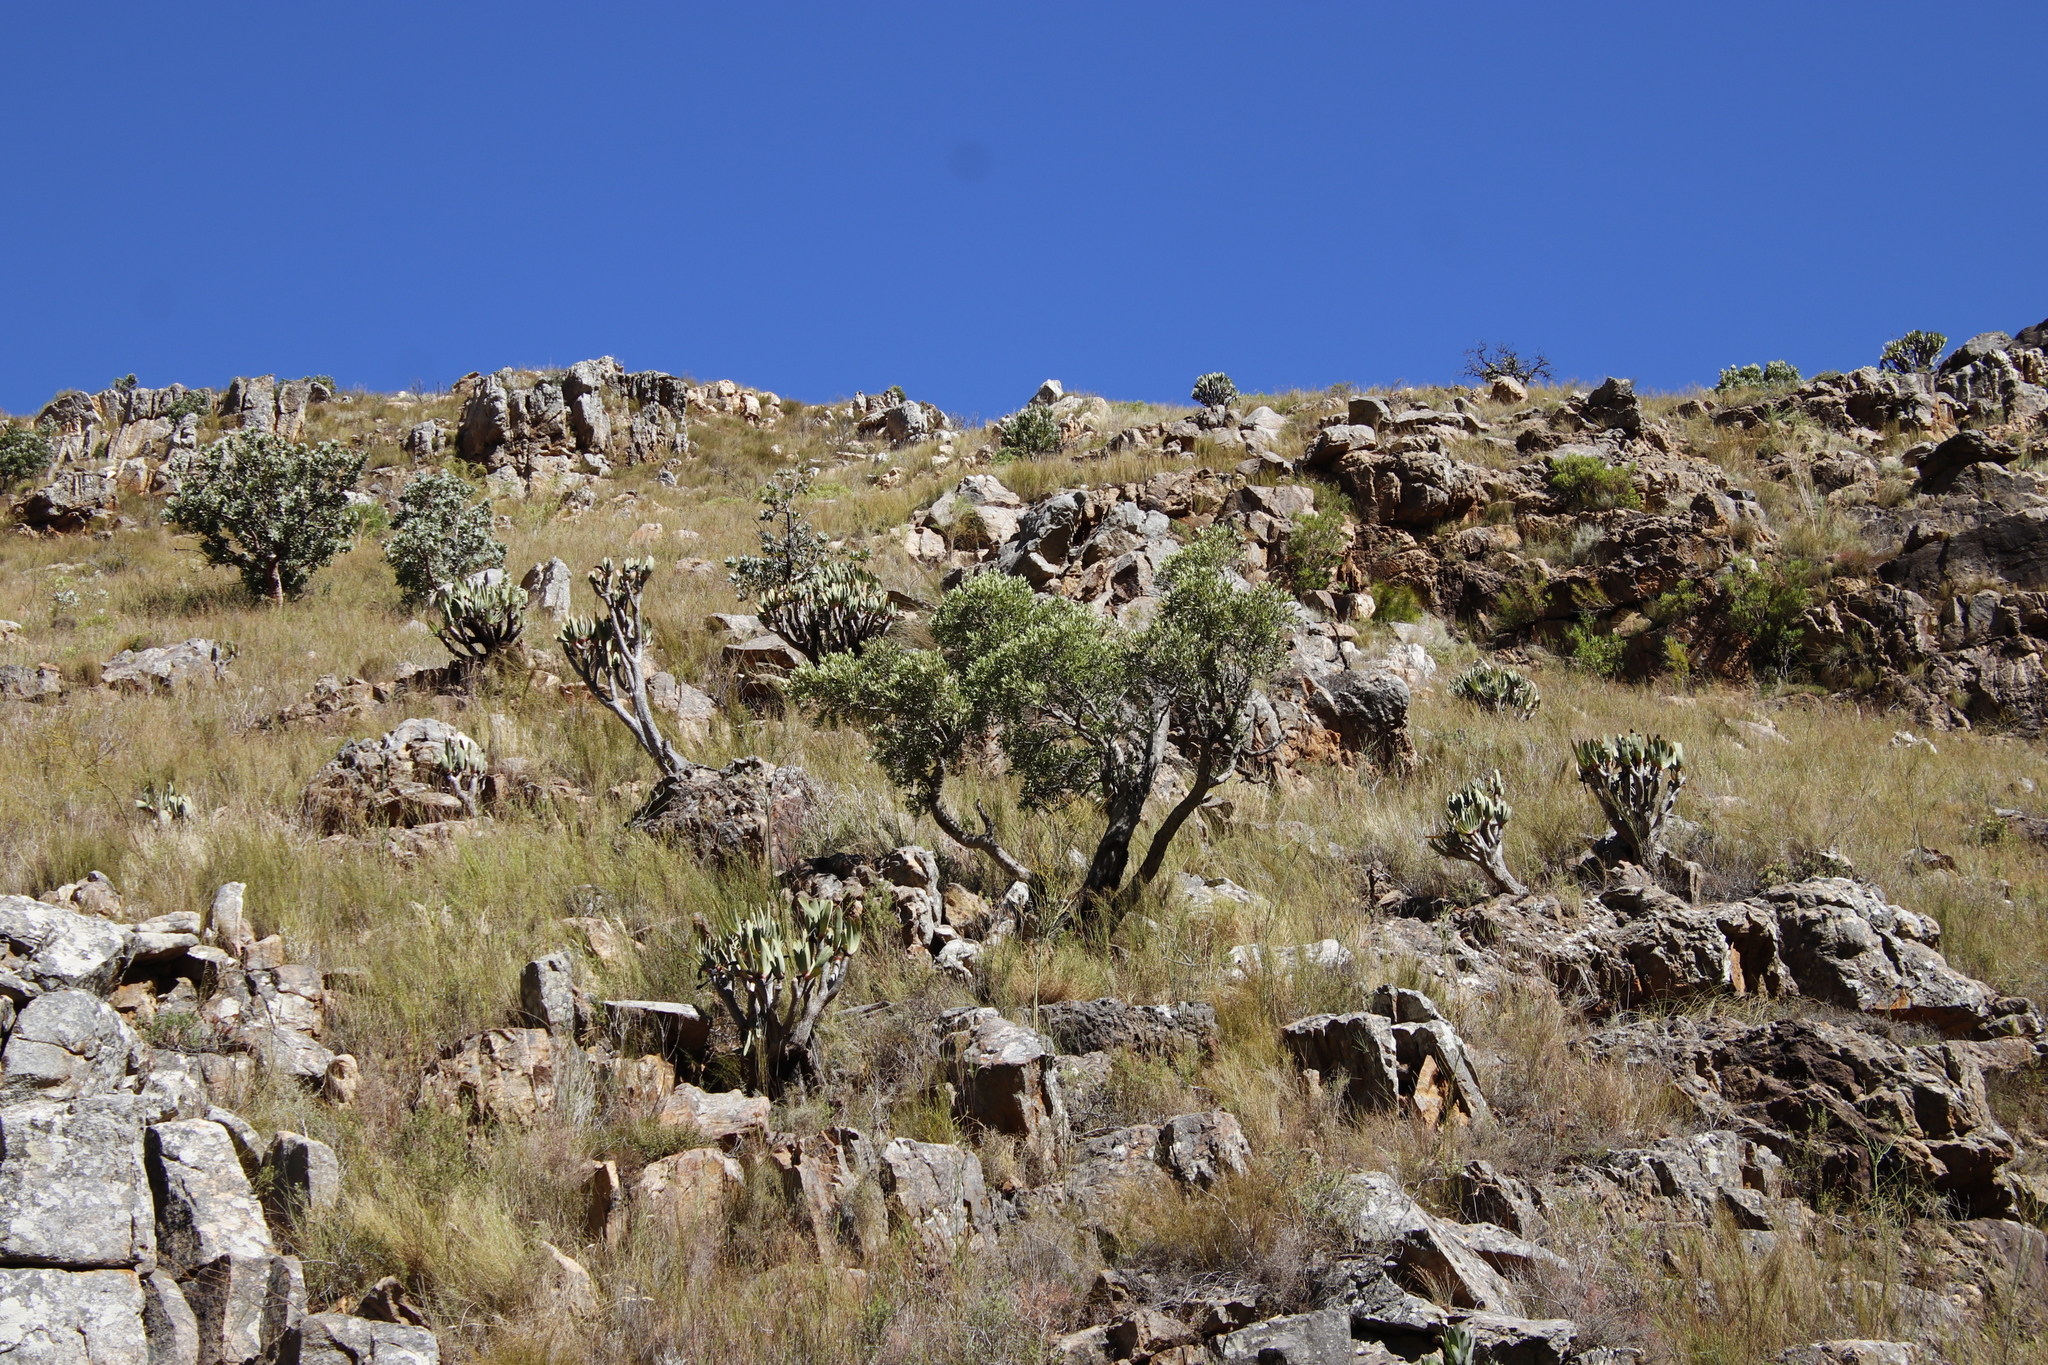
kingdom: Plantae
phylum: Tracheophyta
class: Magnoliopsida
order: Celastrales
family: Celastraceae
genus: Gymnosporia
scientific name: Gymnosporia laurina
